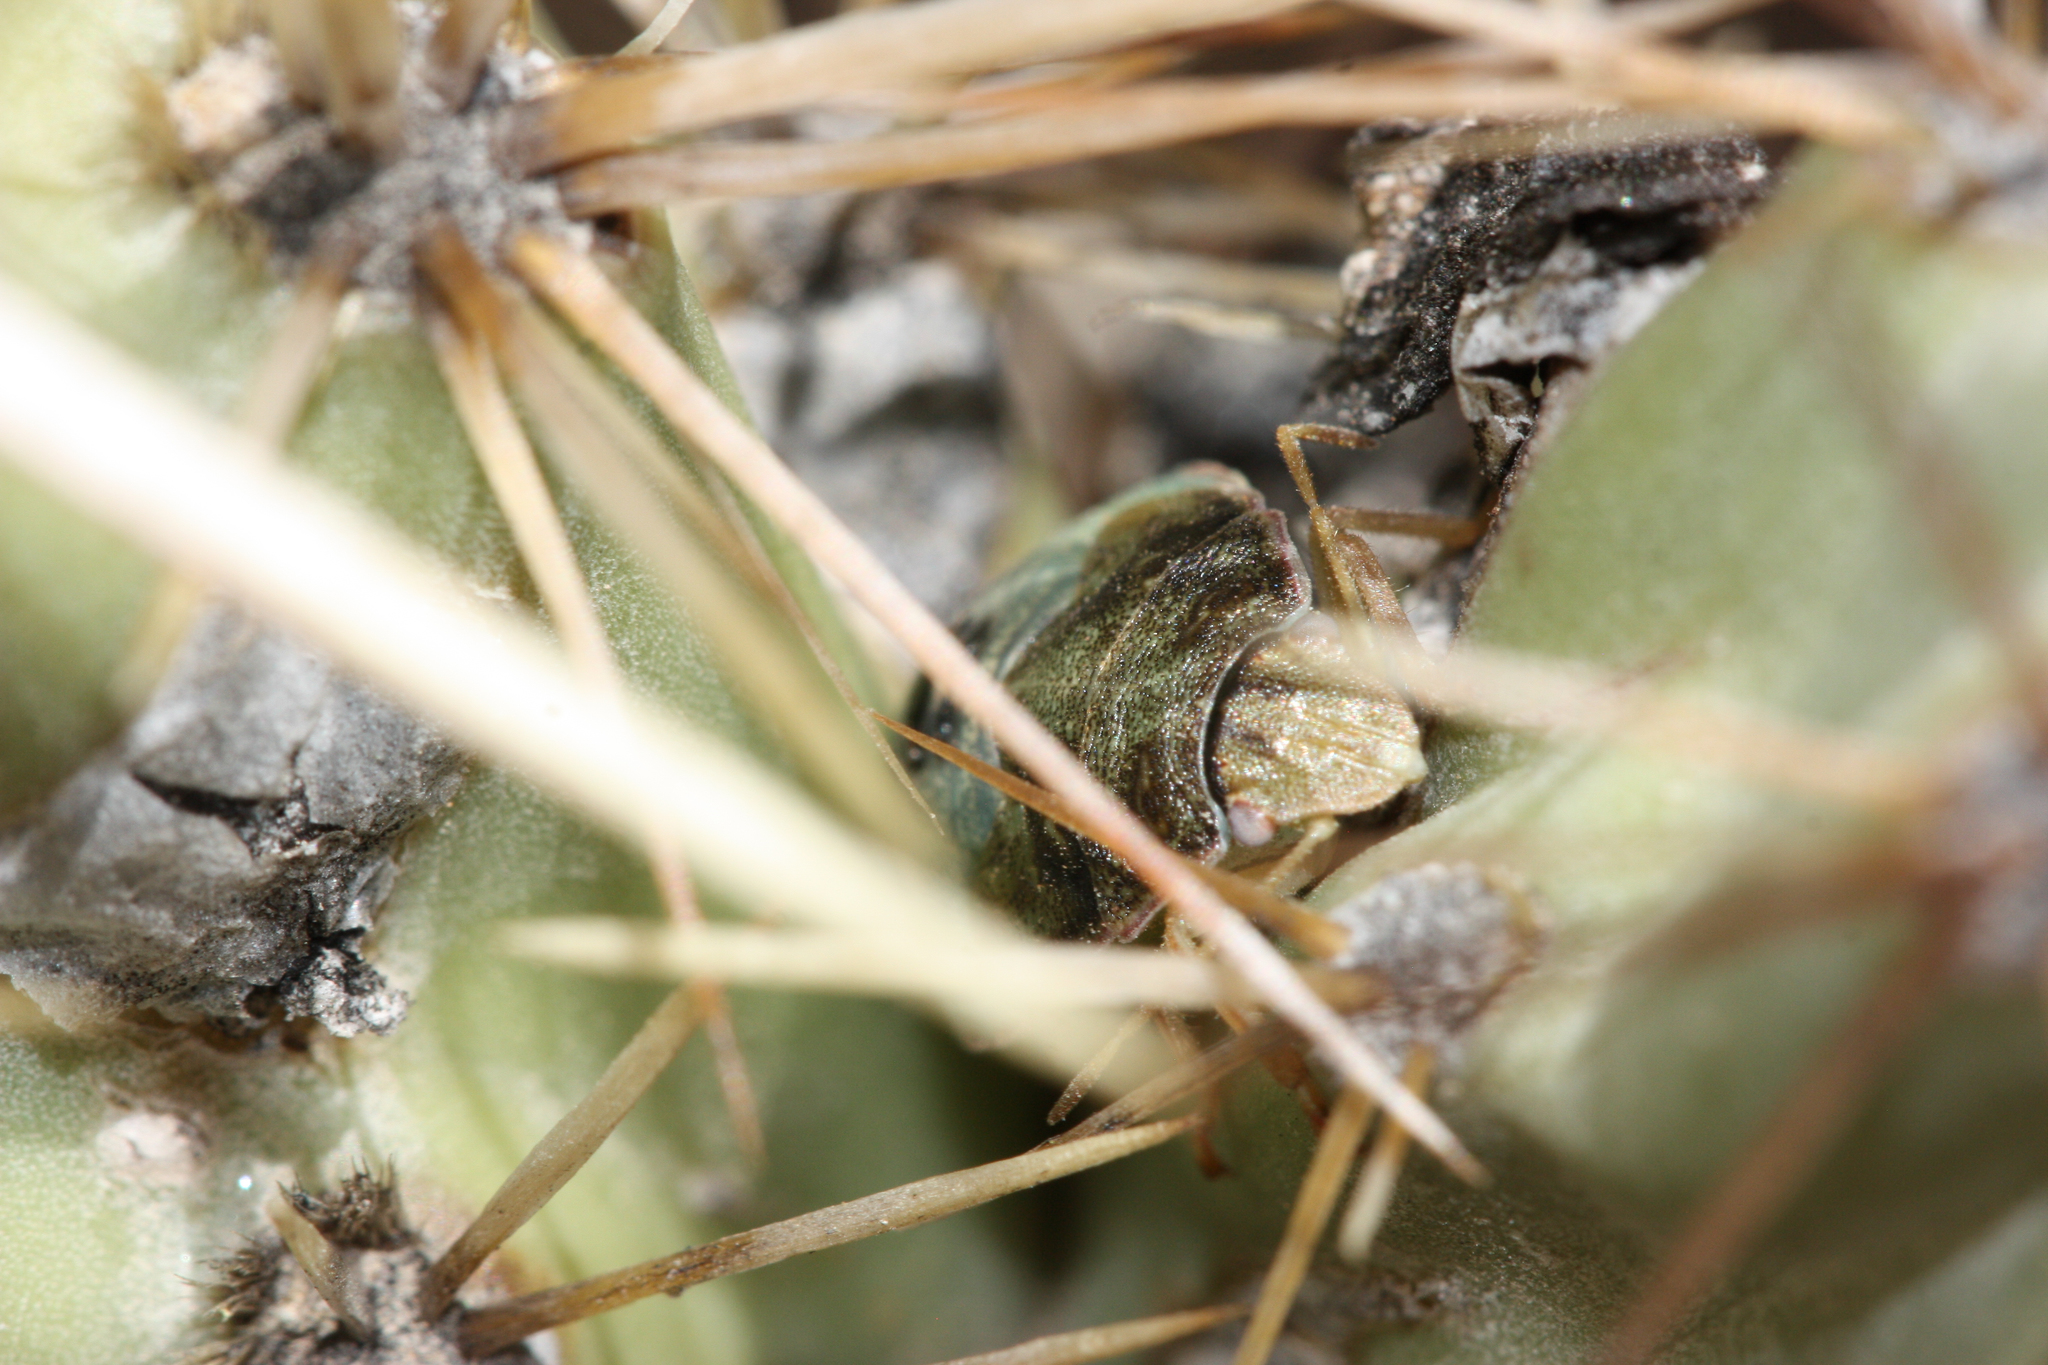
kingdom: Animalia
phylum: Arthropoda
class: Insecta
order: Hemiptera
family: Pentatomidae
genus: Chlorochroa
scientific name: Chlorochroa opuntiae
